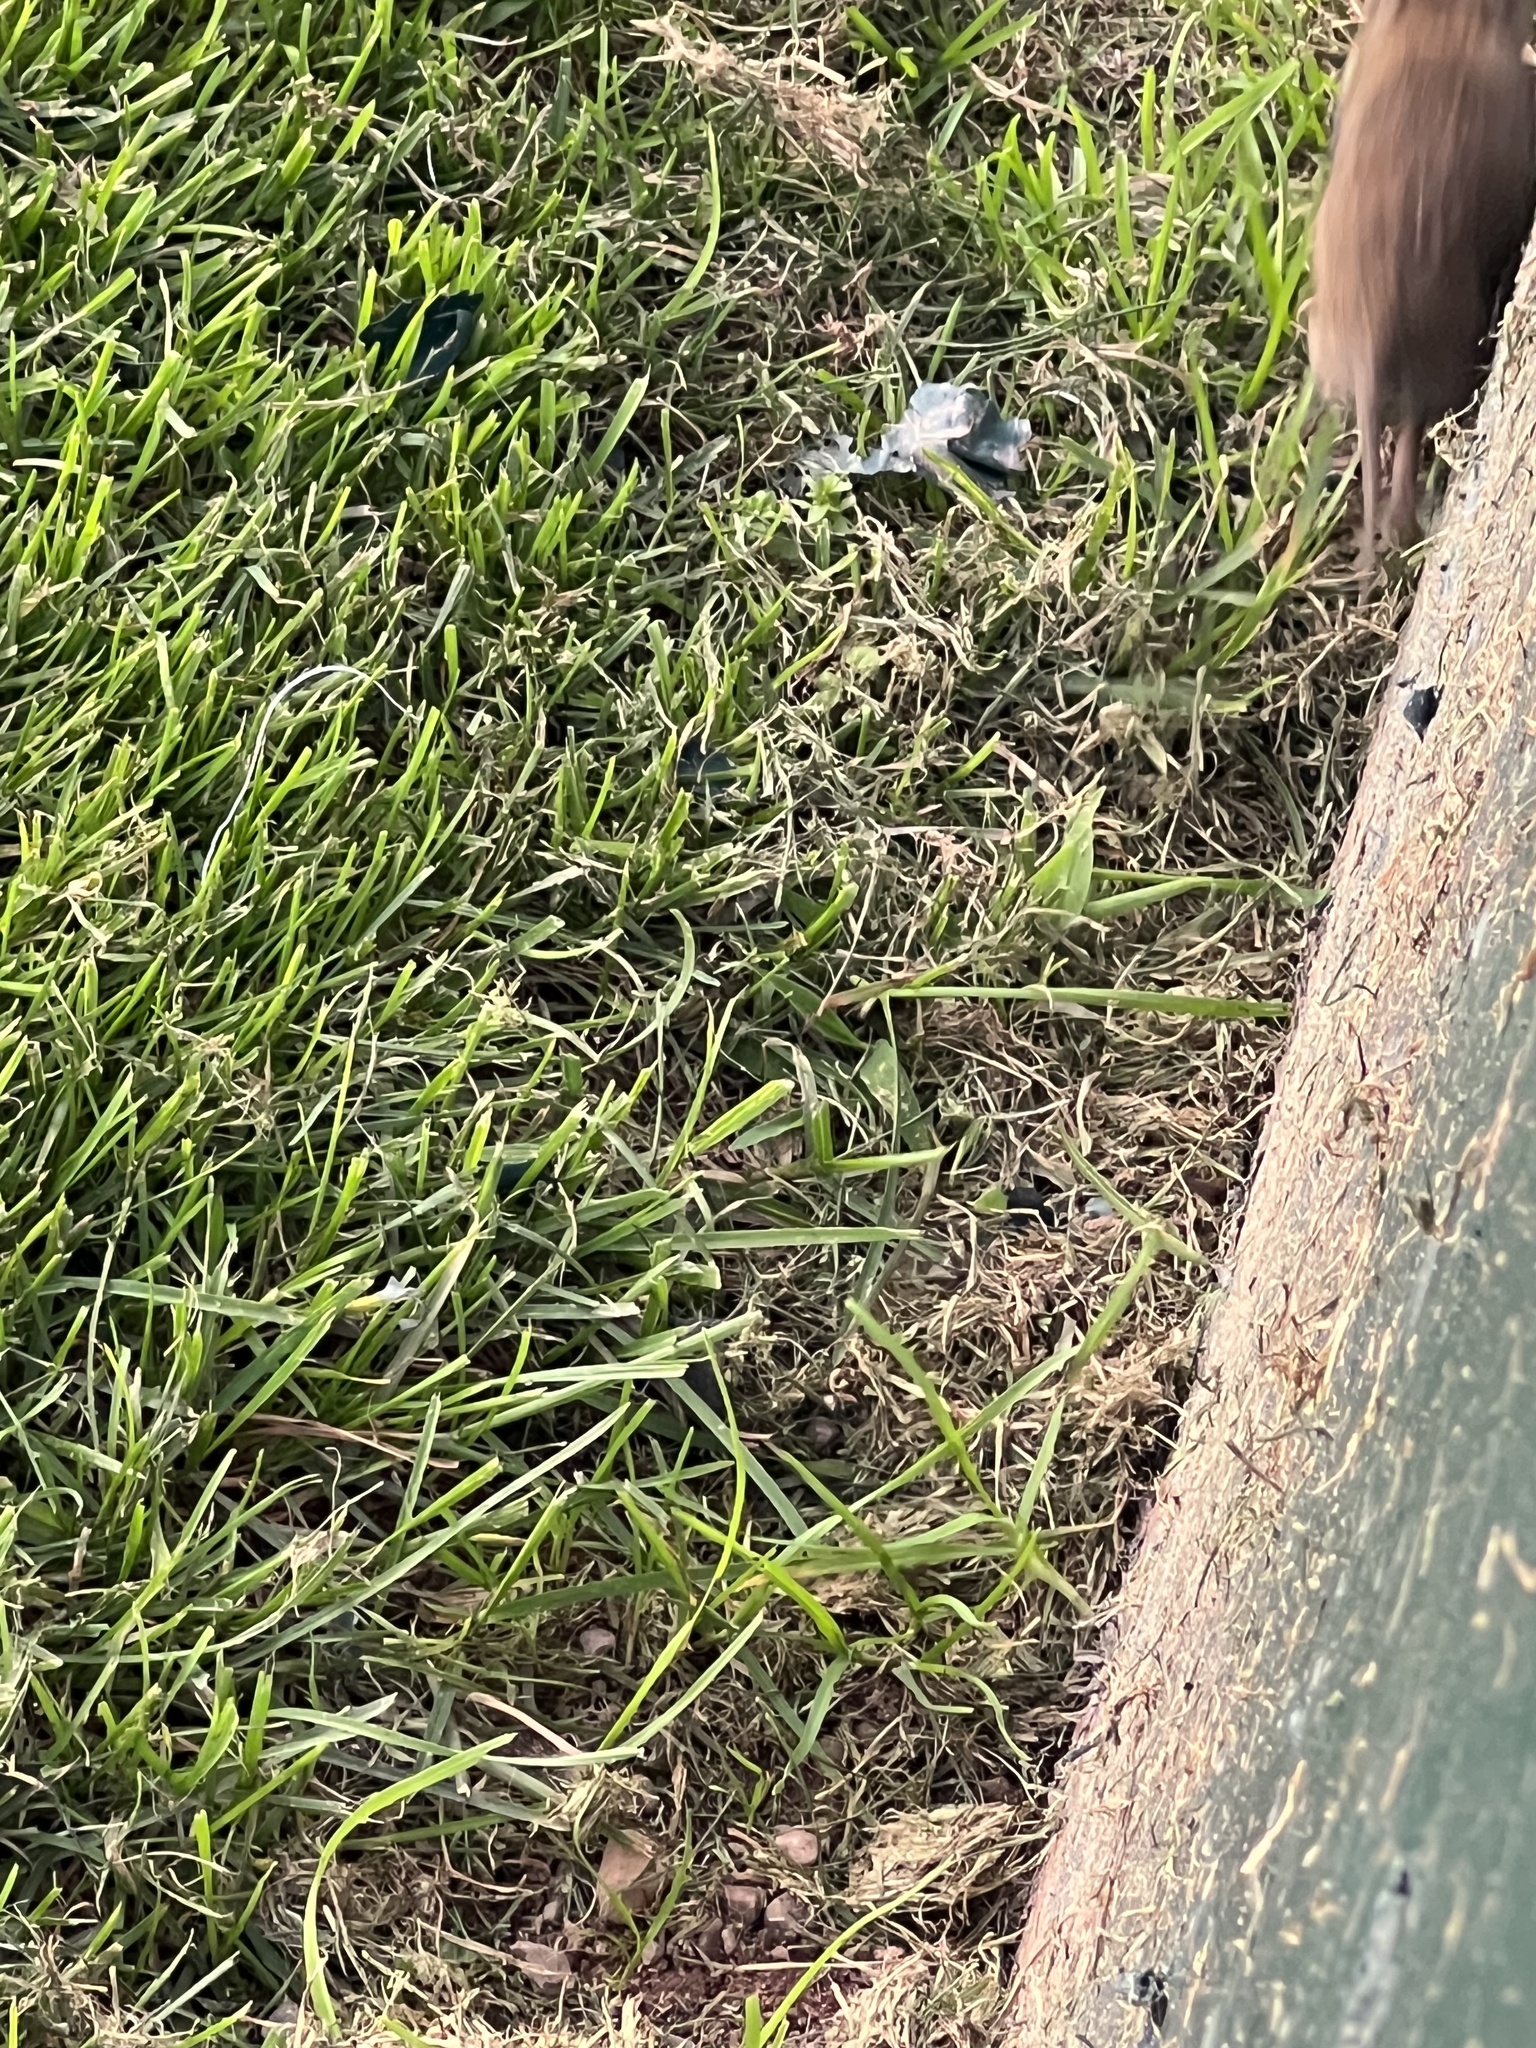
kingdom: Animalia
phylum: Chordata
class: Mammalia
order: Rodentia
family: Cricetidae
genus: Microtus
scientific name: Microtus pennsylvanicus
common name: Meadow vole
